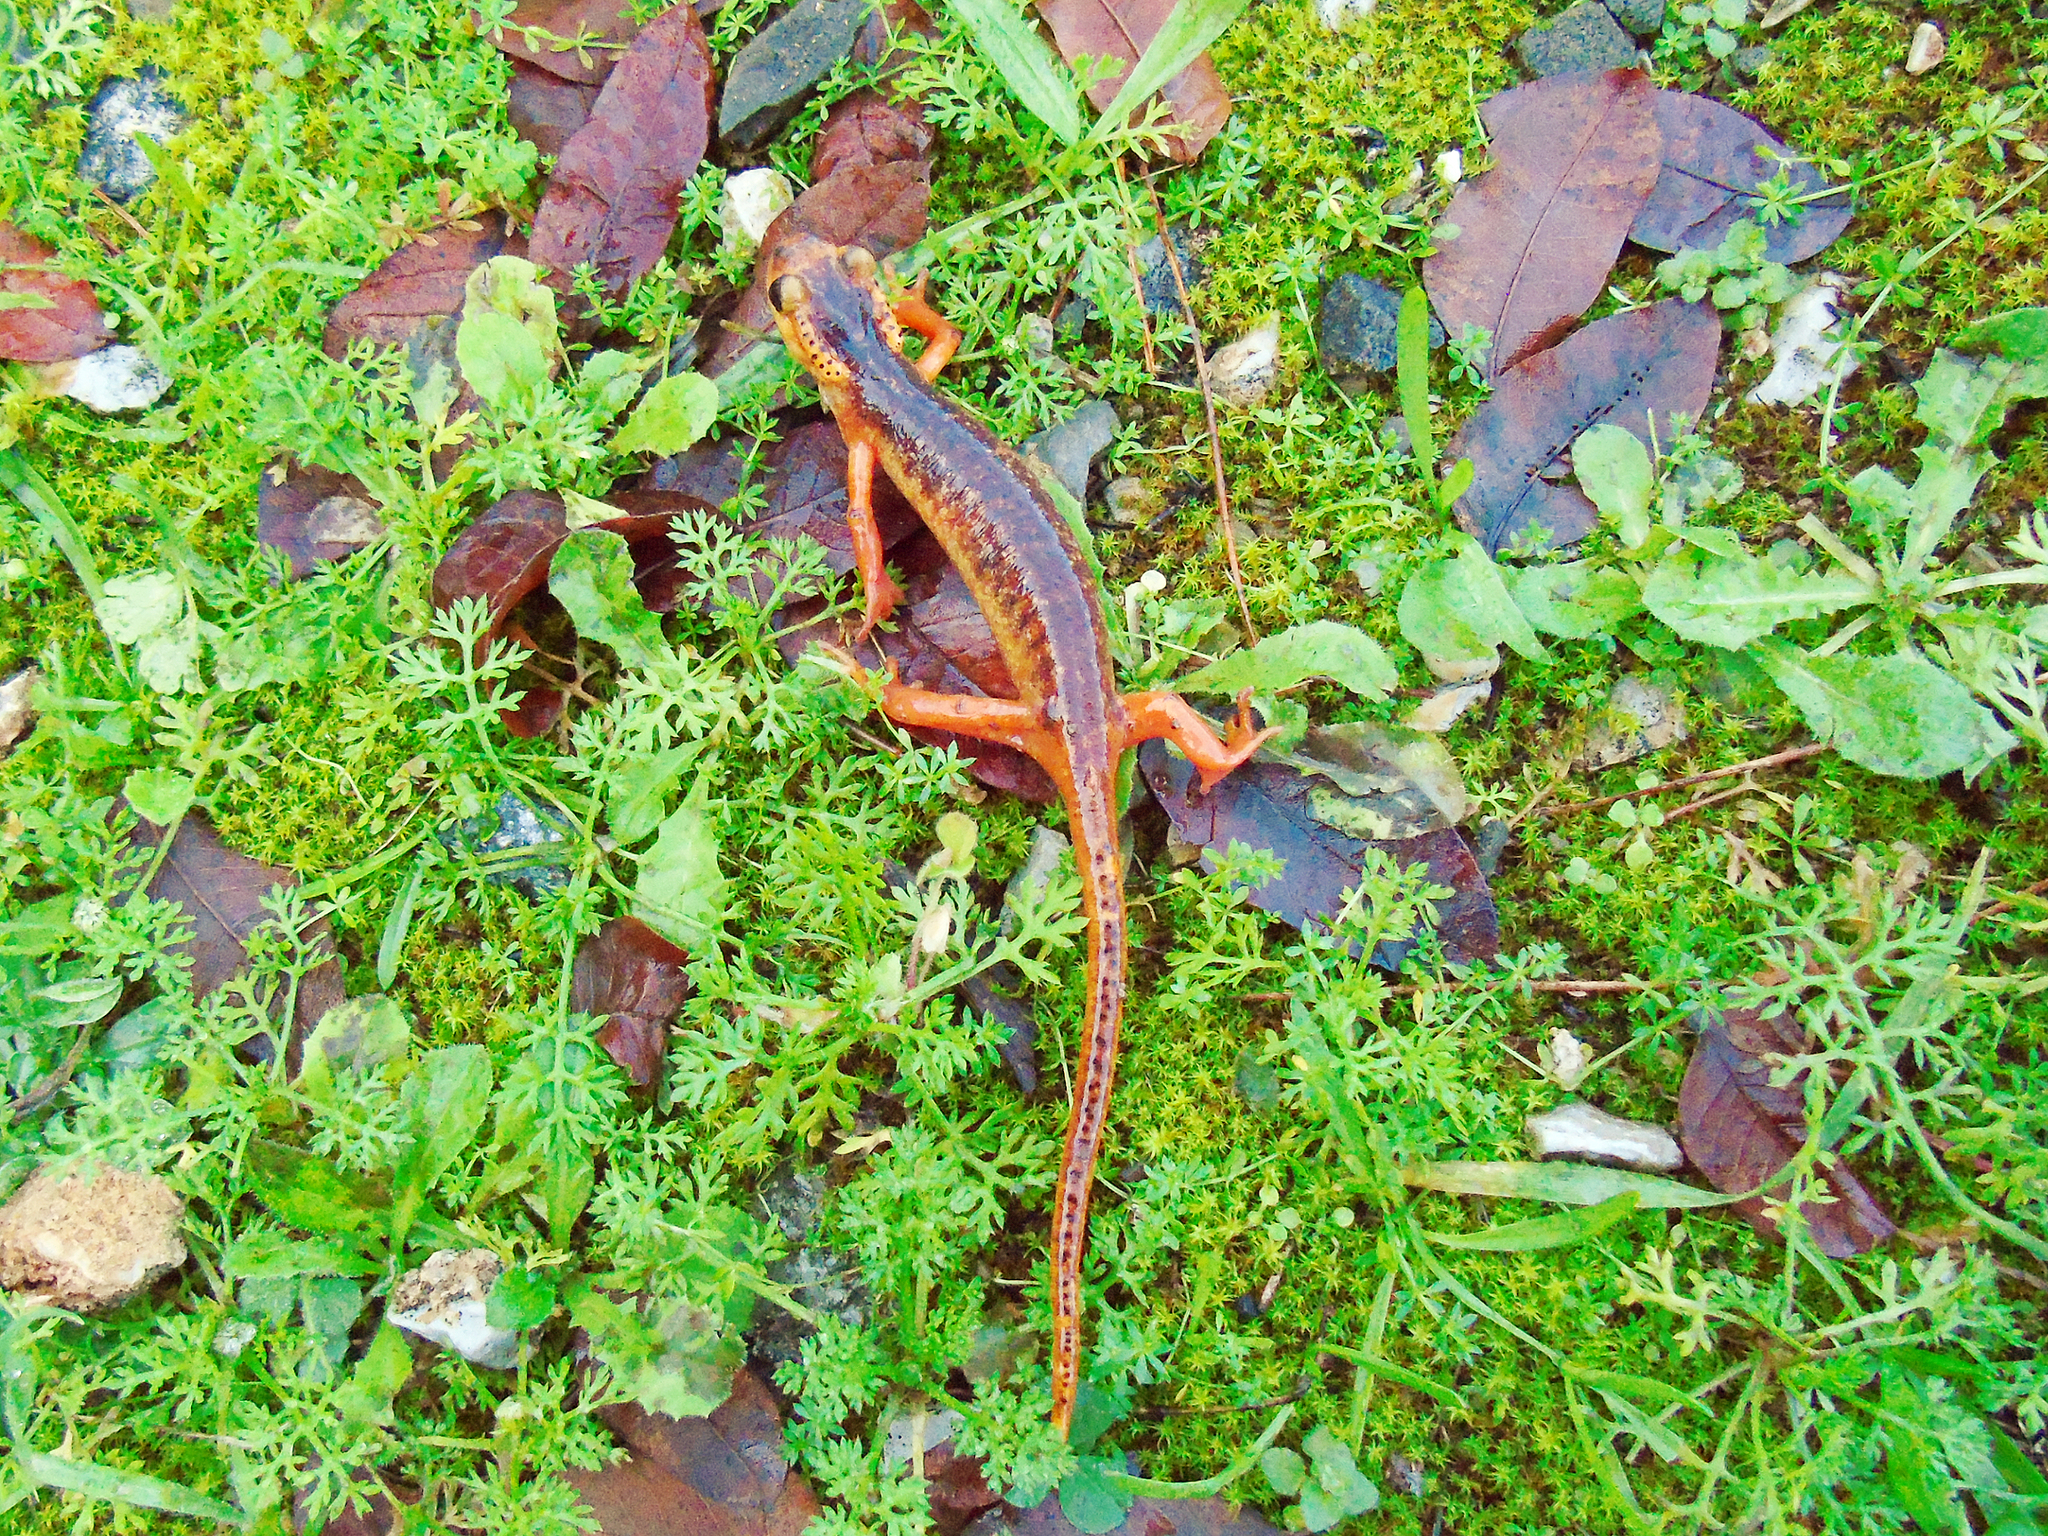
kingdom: Animalia
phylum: Chordata
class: Amphibia
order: Caudata
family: Salamandridae
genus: Lyciasalamandra
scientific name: Lyciasalamandra flavimembris
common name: Maramaris salamander
